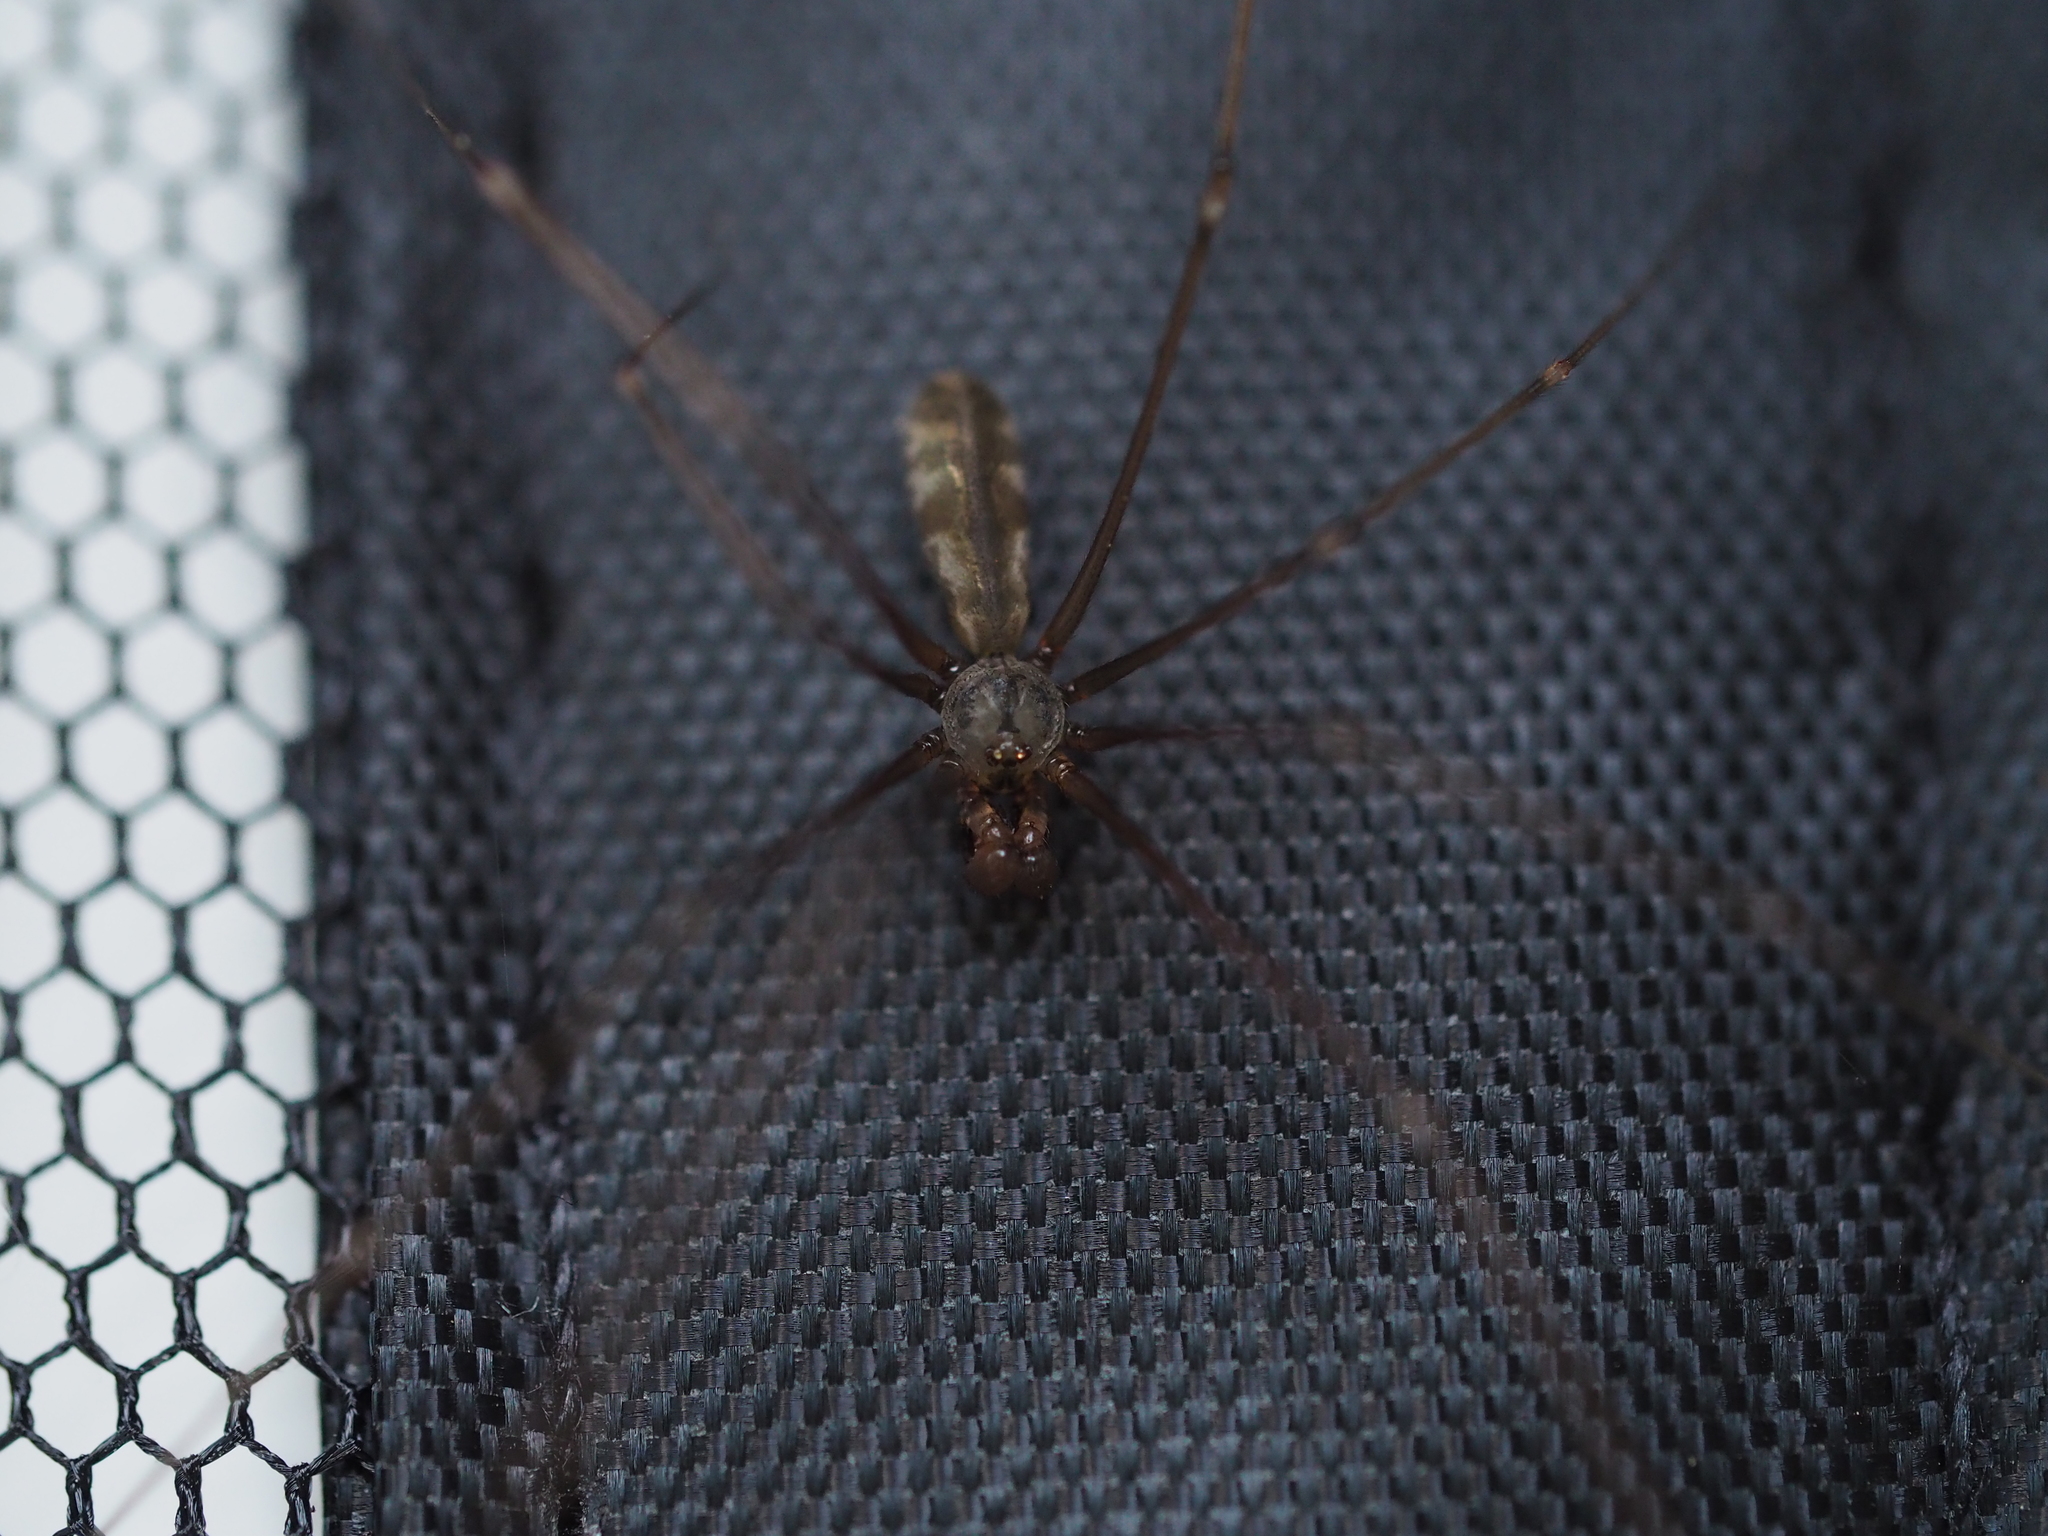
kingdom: Animalia
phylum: Arthropoda
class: Arachnida
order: Araneae
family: Pholcidae
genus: Pholcus
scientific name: Pholcus opilionoides
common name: Daddylongleg spider
